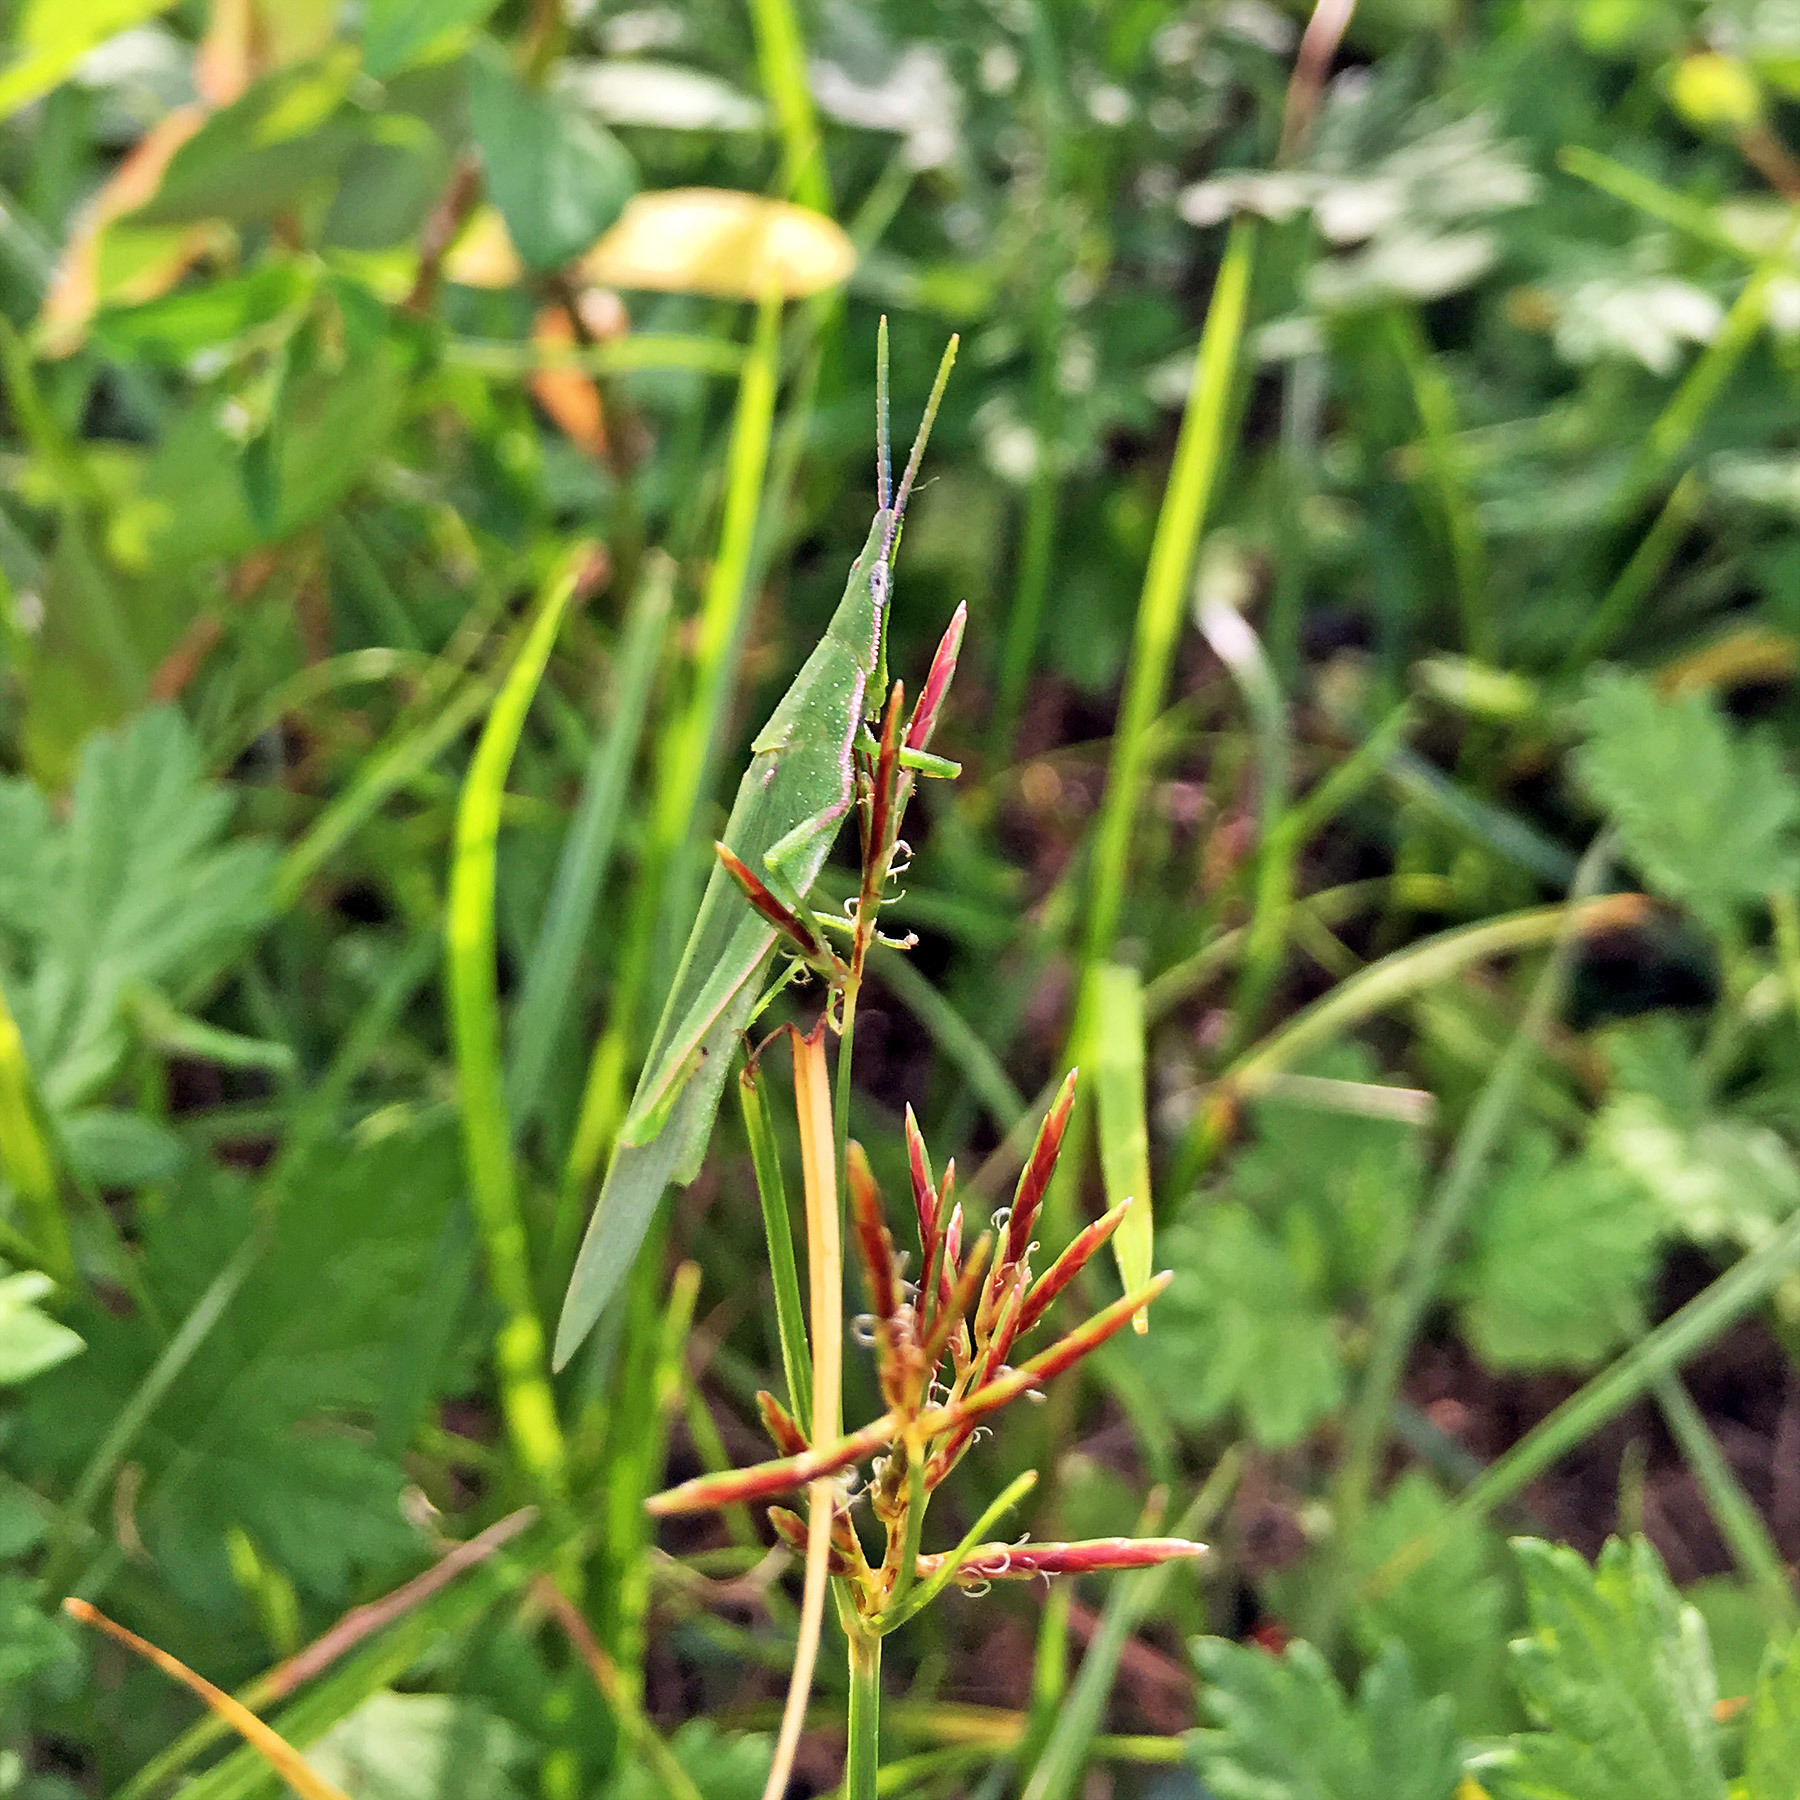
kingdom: Animalia
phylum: Arthropoda
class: Insecta
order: Orthoptera
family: Pyrgomorphidae
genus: Atractomorpha
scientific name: Atractomorpha lata
